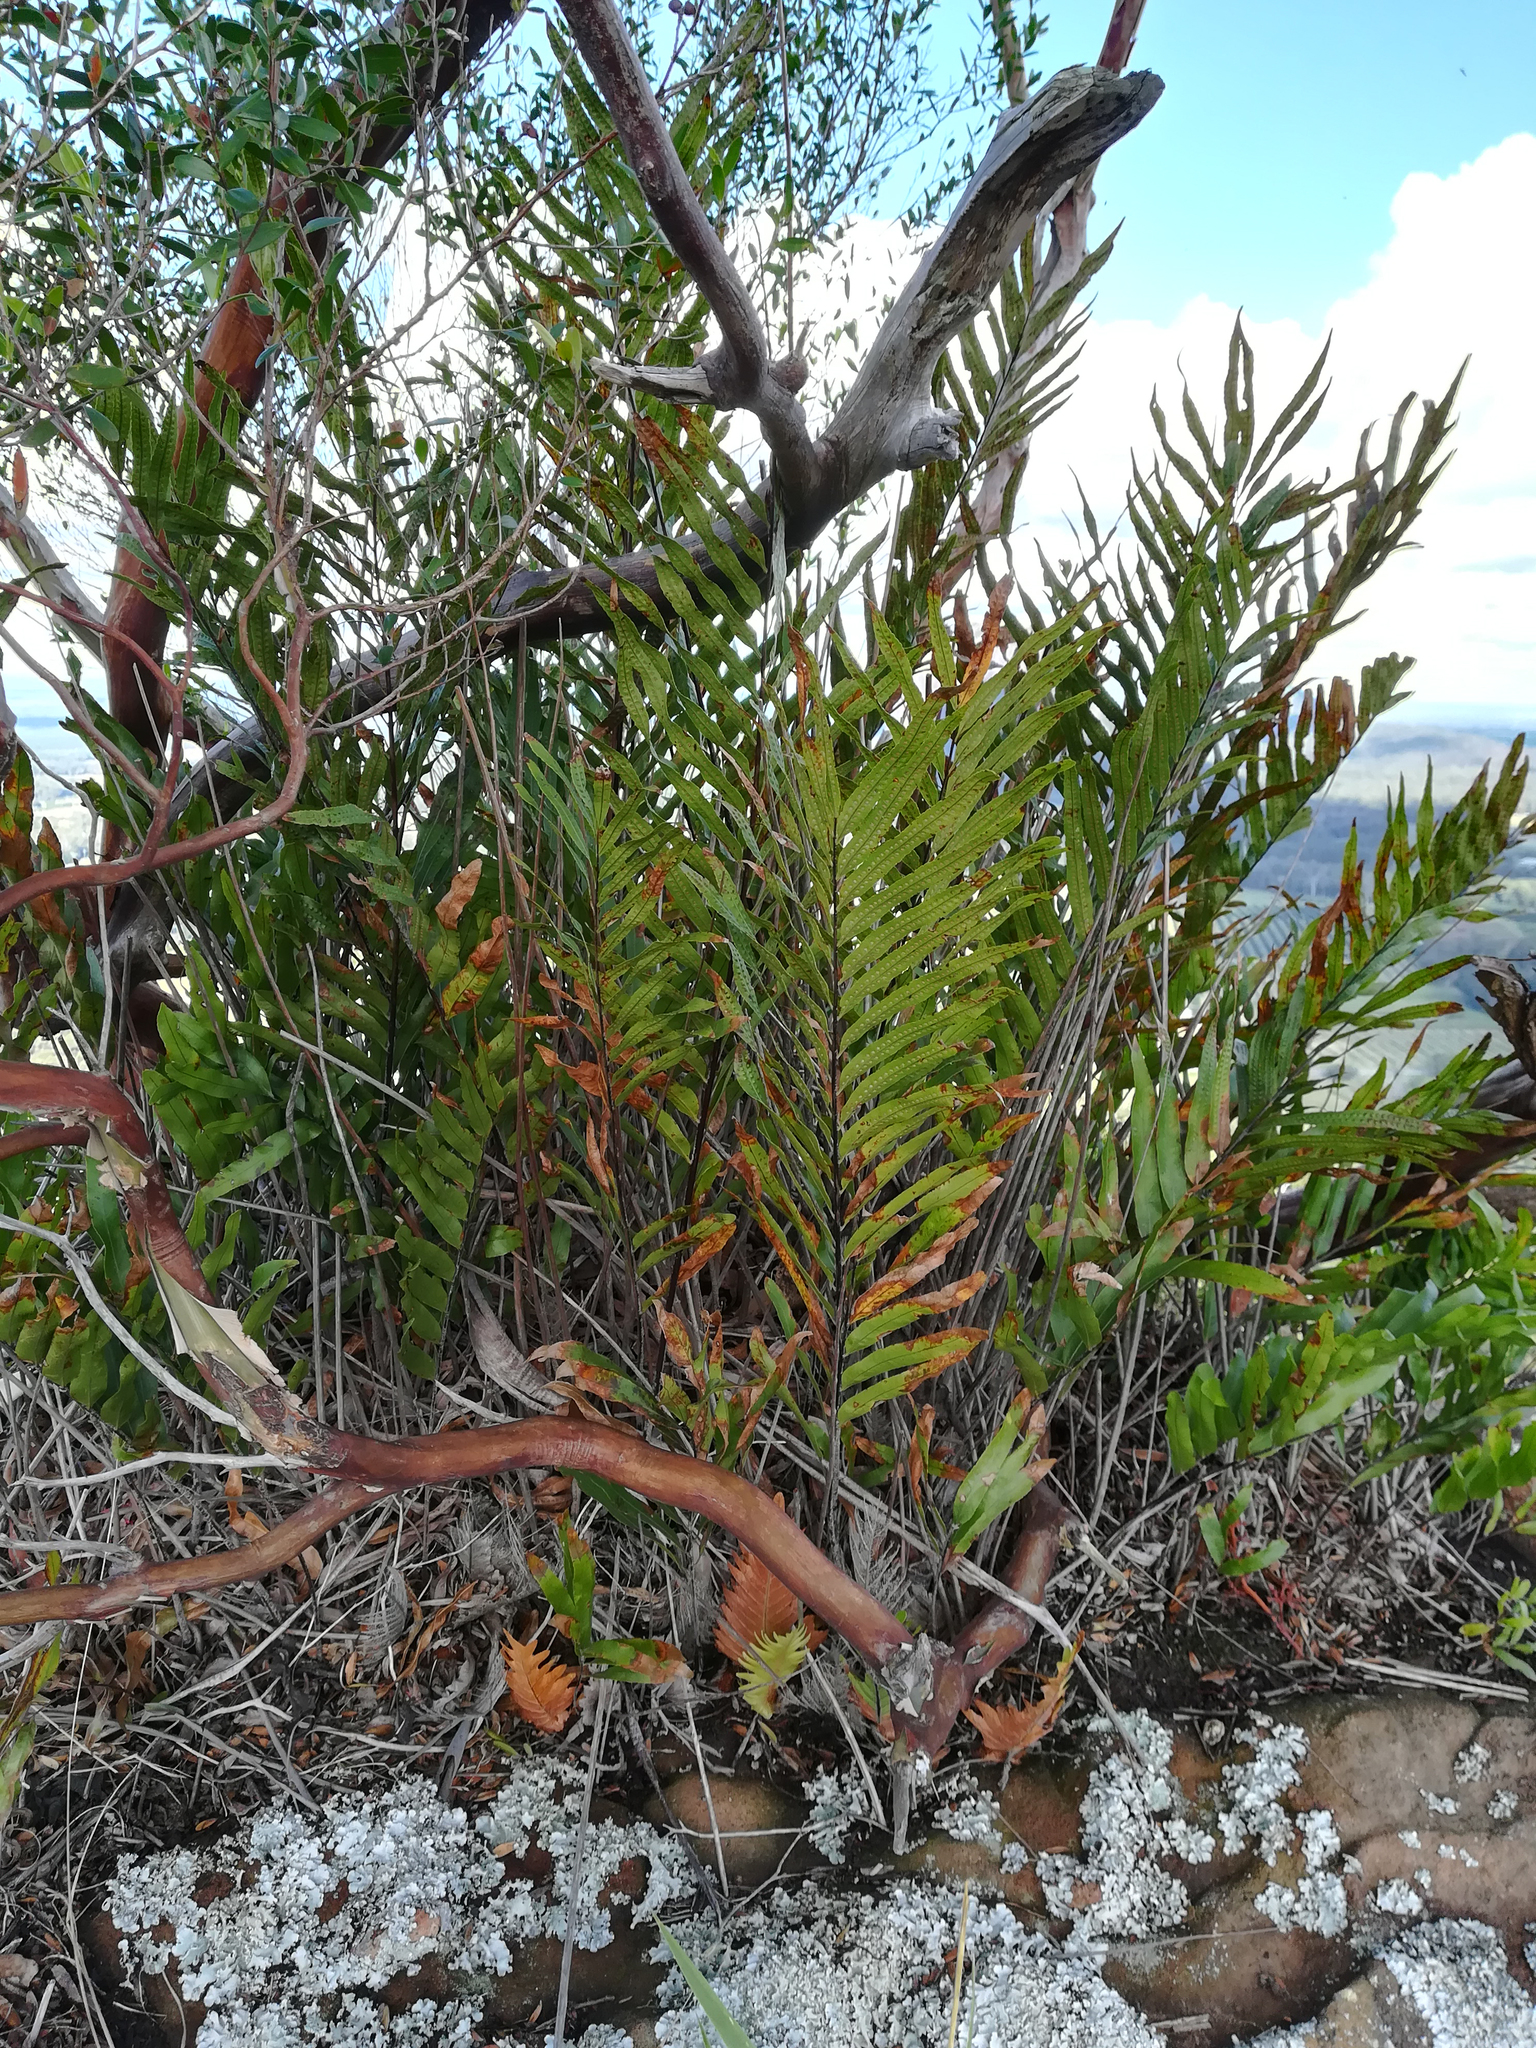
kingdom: Plantae
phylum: Tracheophyta
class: Polypodiopsida
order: Polypodiales
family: Polypodiaceae
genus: Drynaria
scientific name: Drynaria rigidula
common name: Basket fern
